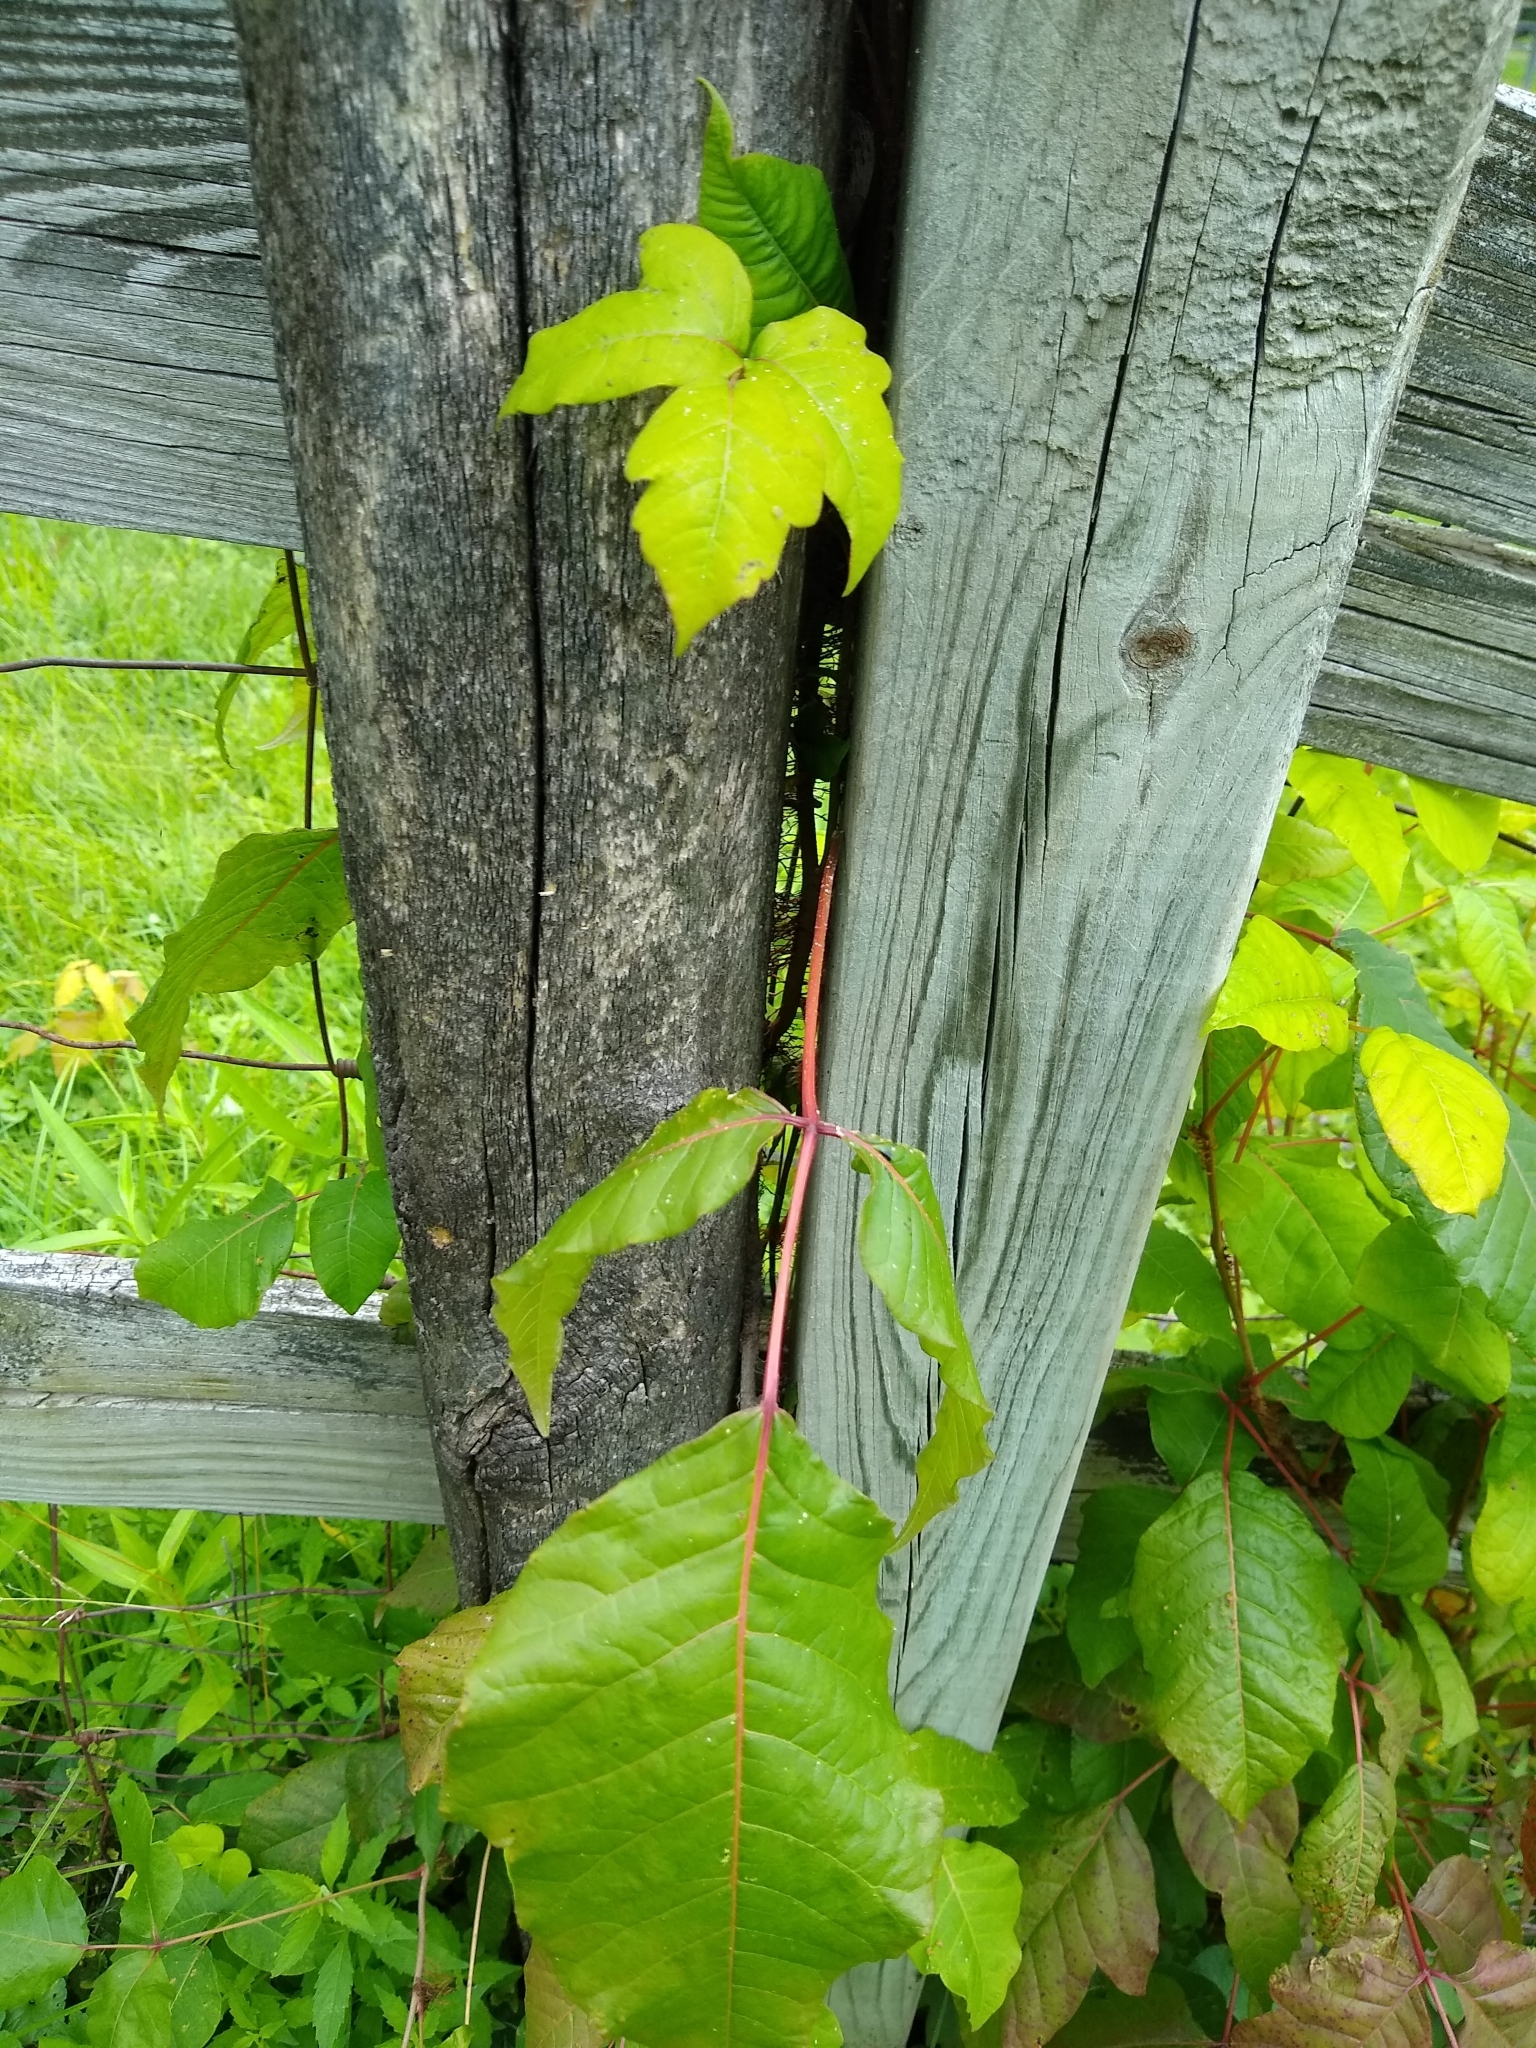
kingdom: Plantae
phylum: Tracheophyta
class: Magnoliopsida
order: Sapindales
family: Anacardiaceae
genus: Toxicodendron
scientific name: Toxicodendron radicans
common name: Poison ivy
